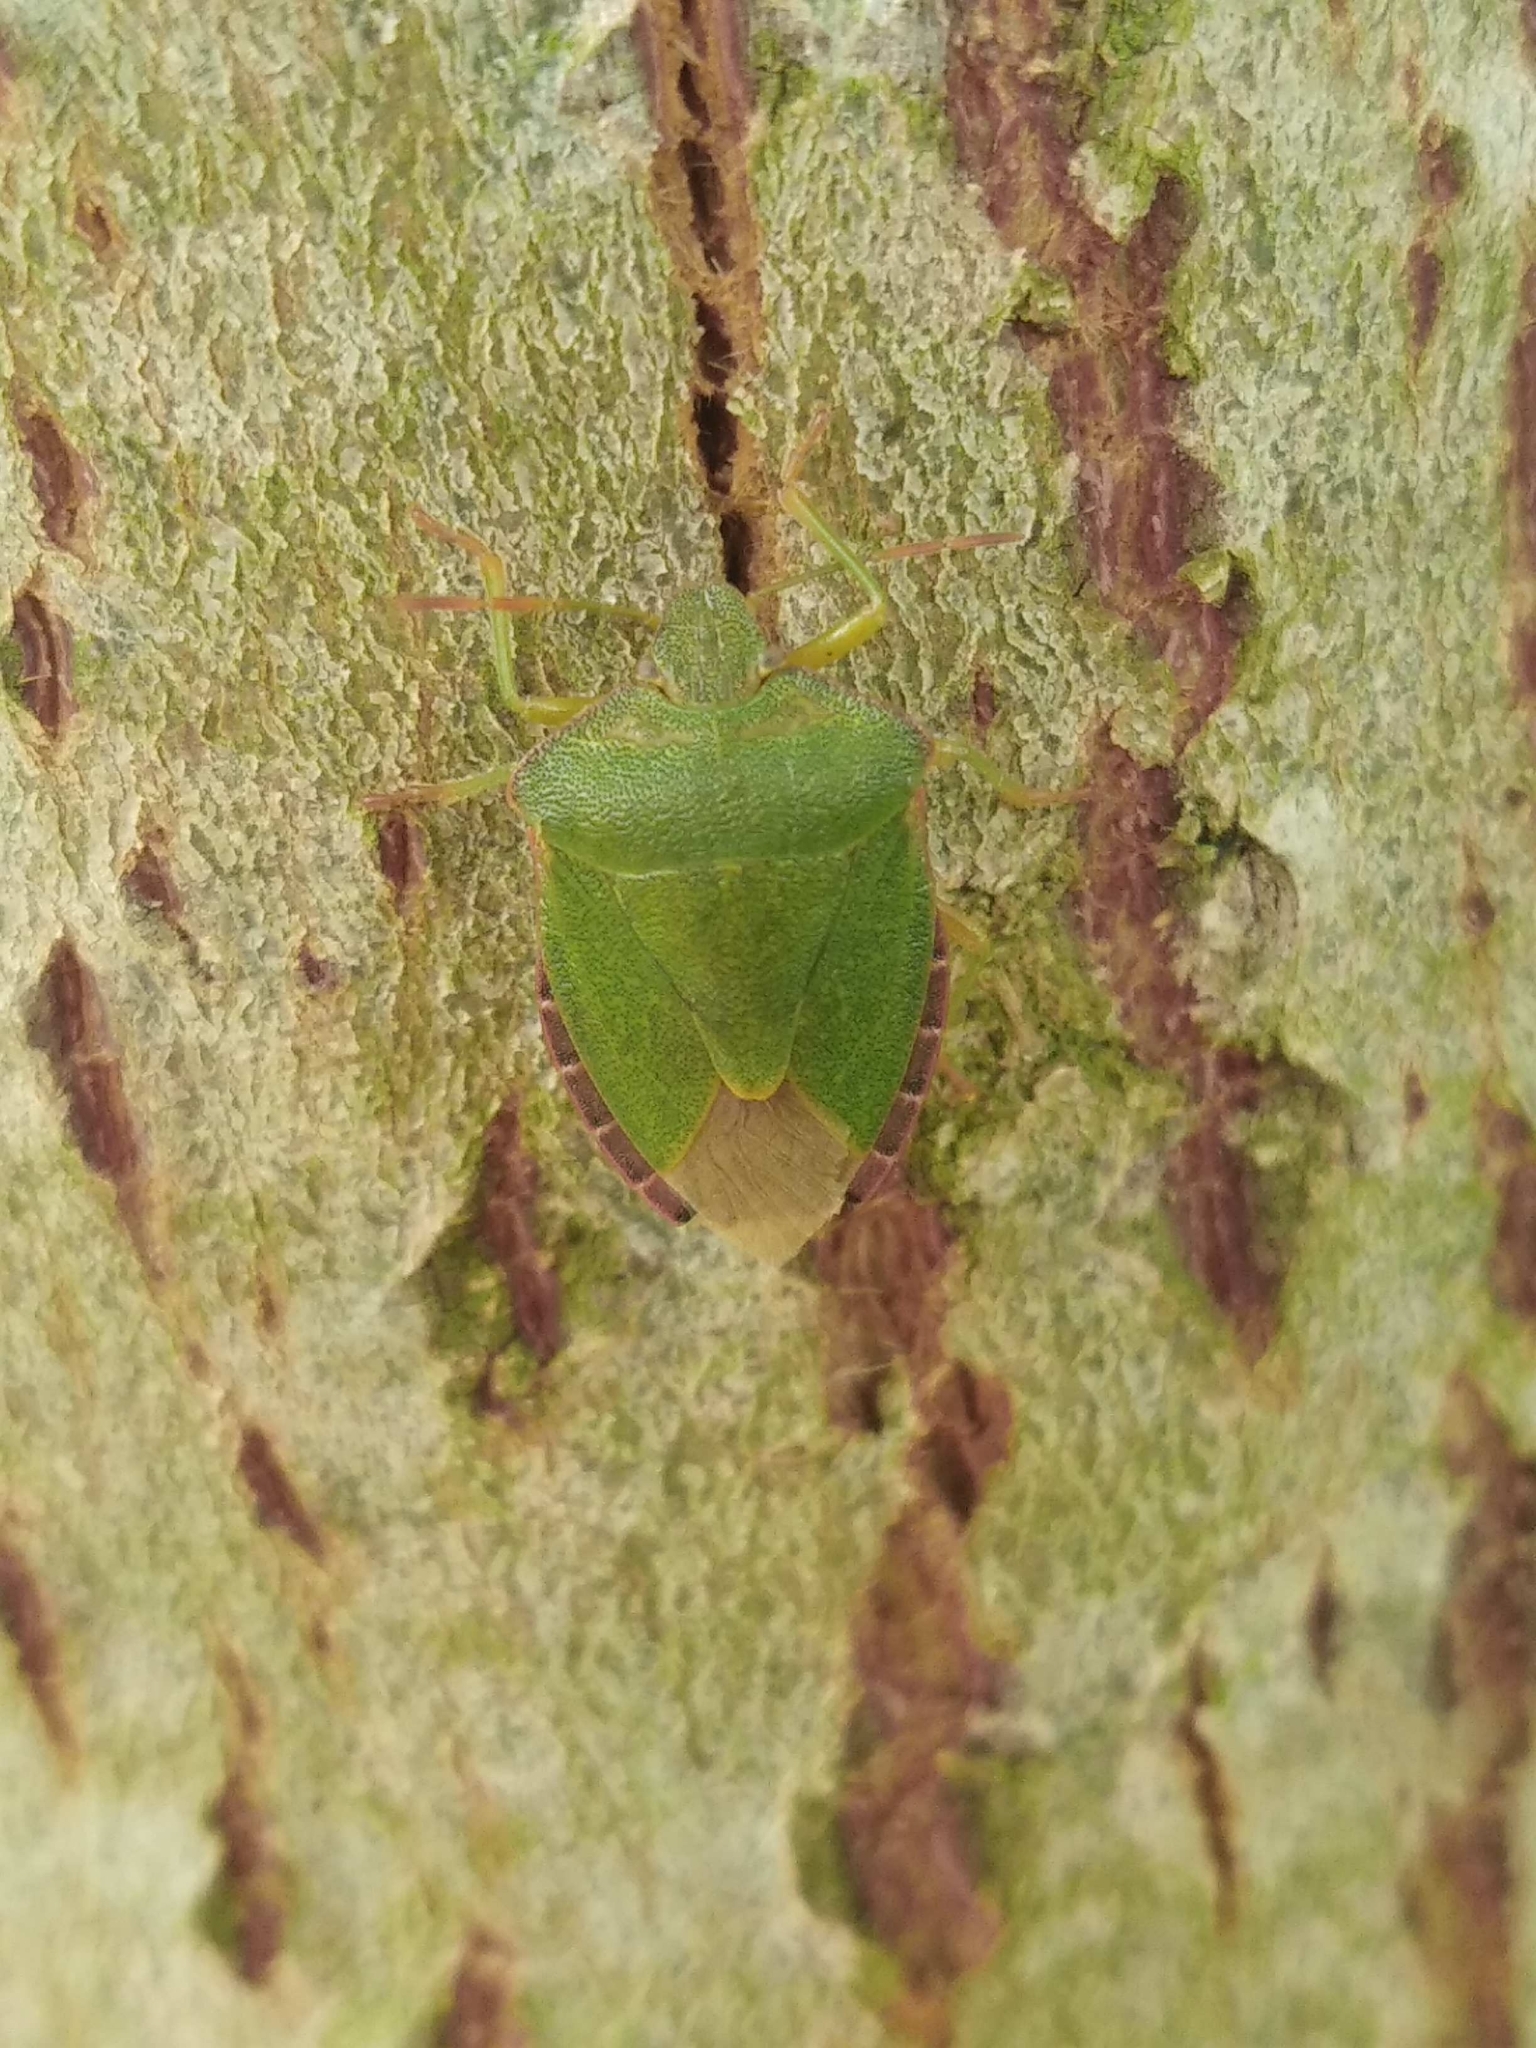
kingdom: Animalia
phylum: Arthropoda
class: Insecta
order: Hemiptera
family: Pentatomidae
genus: Palomena
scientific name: Palomena prasina
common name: Green shieldbug
